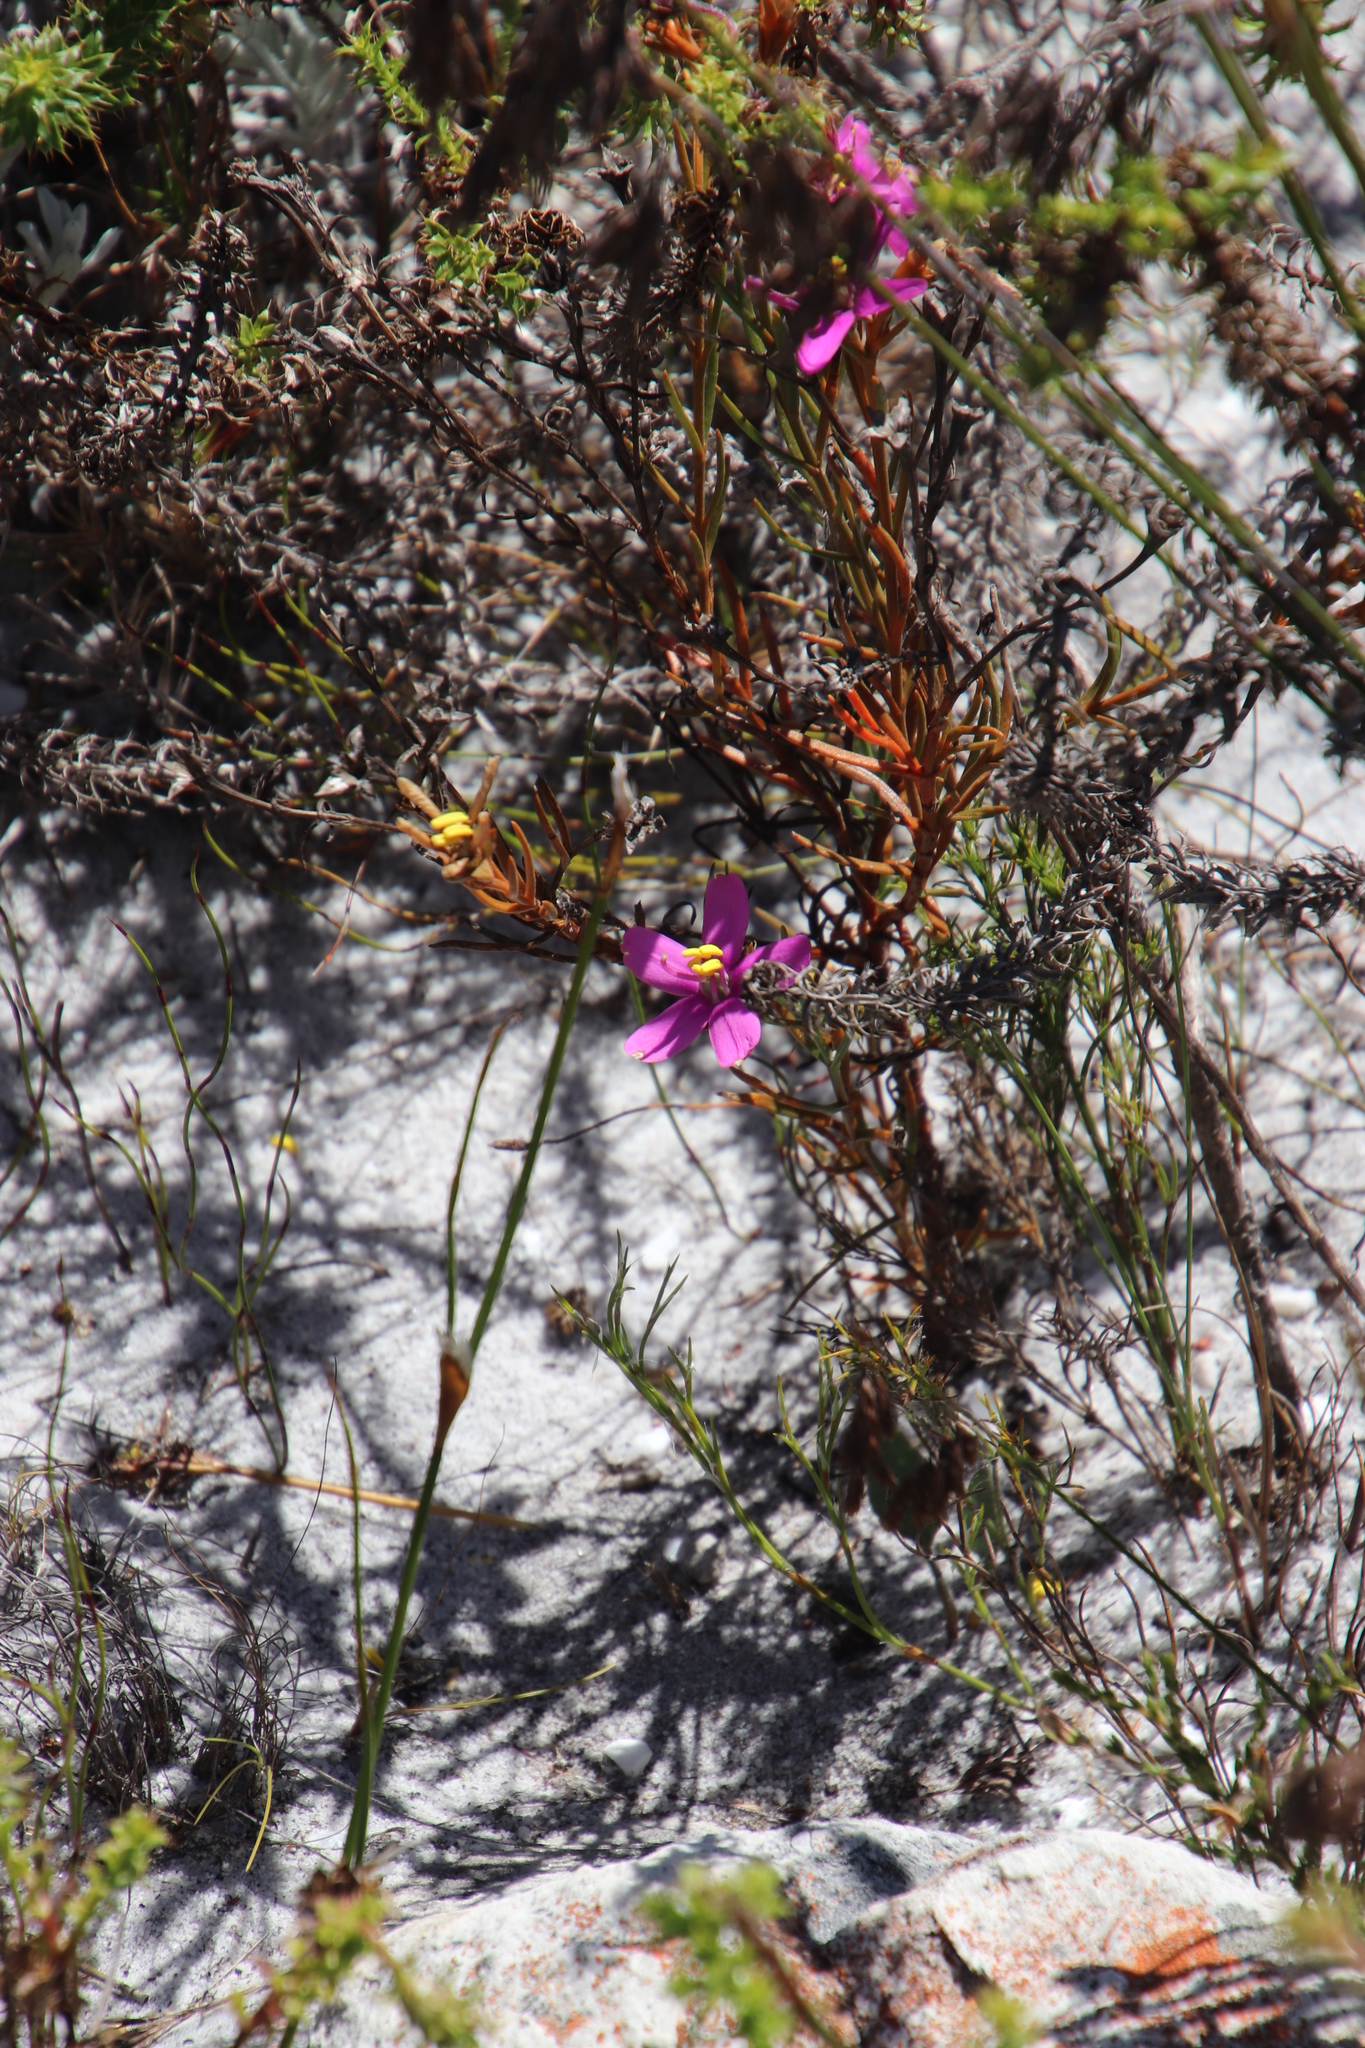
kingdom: Plantae
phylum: Tracheophyta
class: Magnoliopsida
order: Gentianales
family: Gentianaceae
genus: Chironia
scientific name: Chironia linoides
